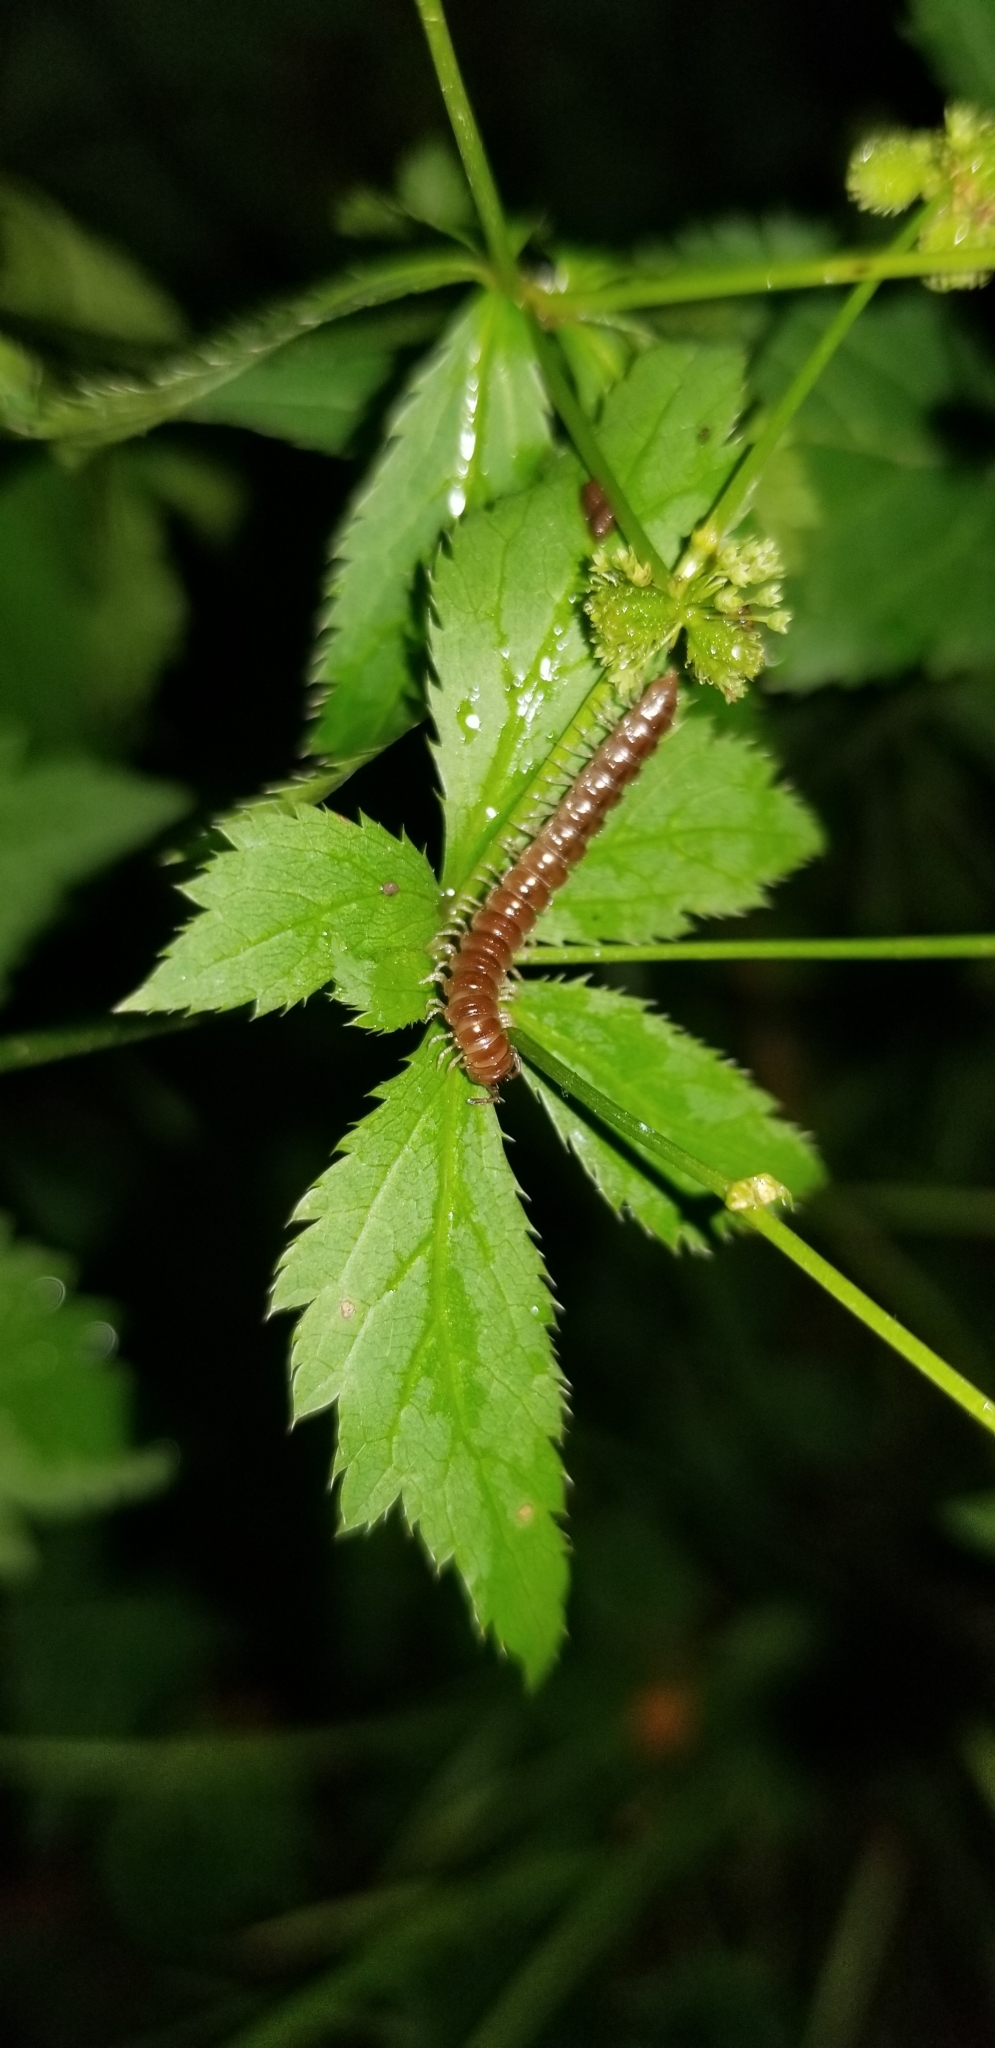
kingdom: Animalia
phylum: Arthropoda
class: Diplopoda
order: Polydesmida
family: Paradoxosomatidae
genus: Oxidus
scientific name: Oxidus gracilis
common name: Greenhouse millipede
